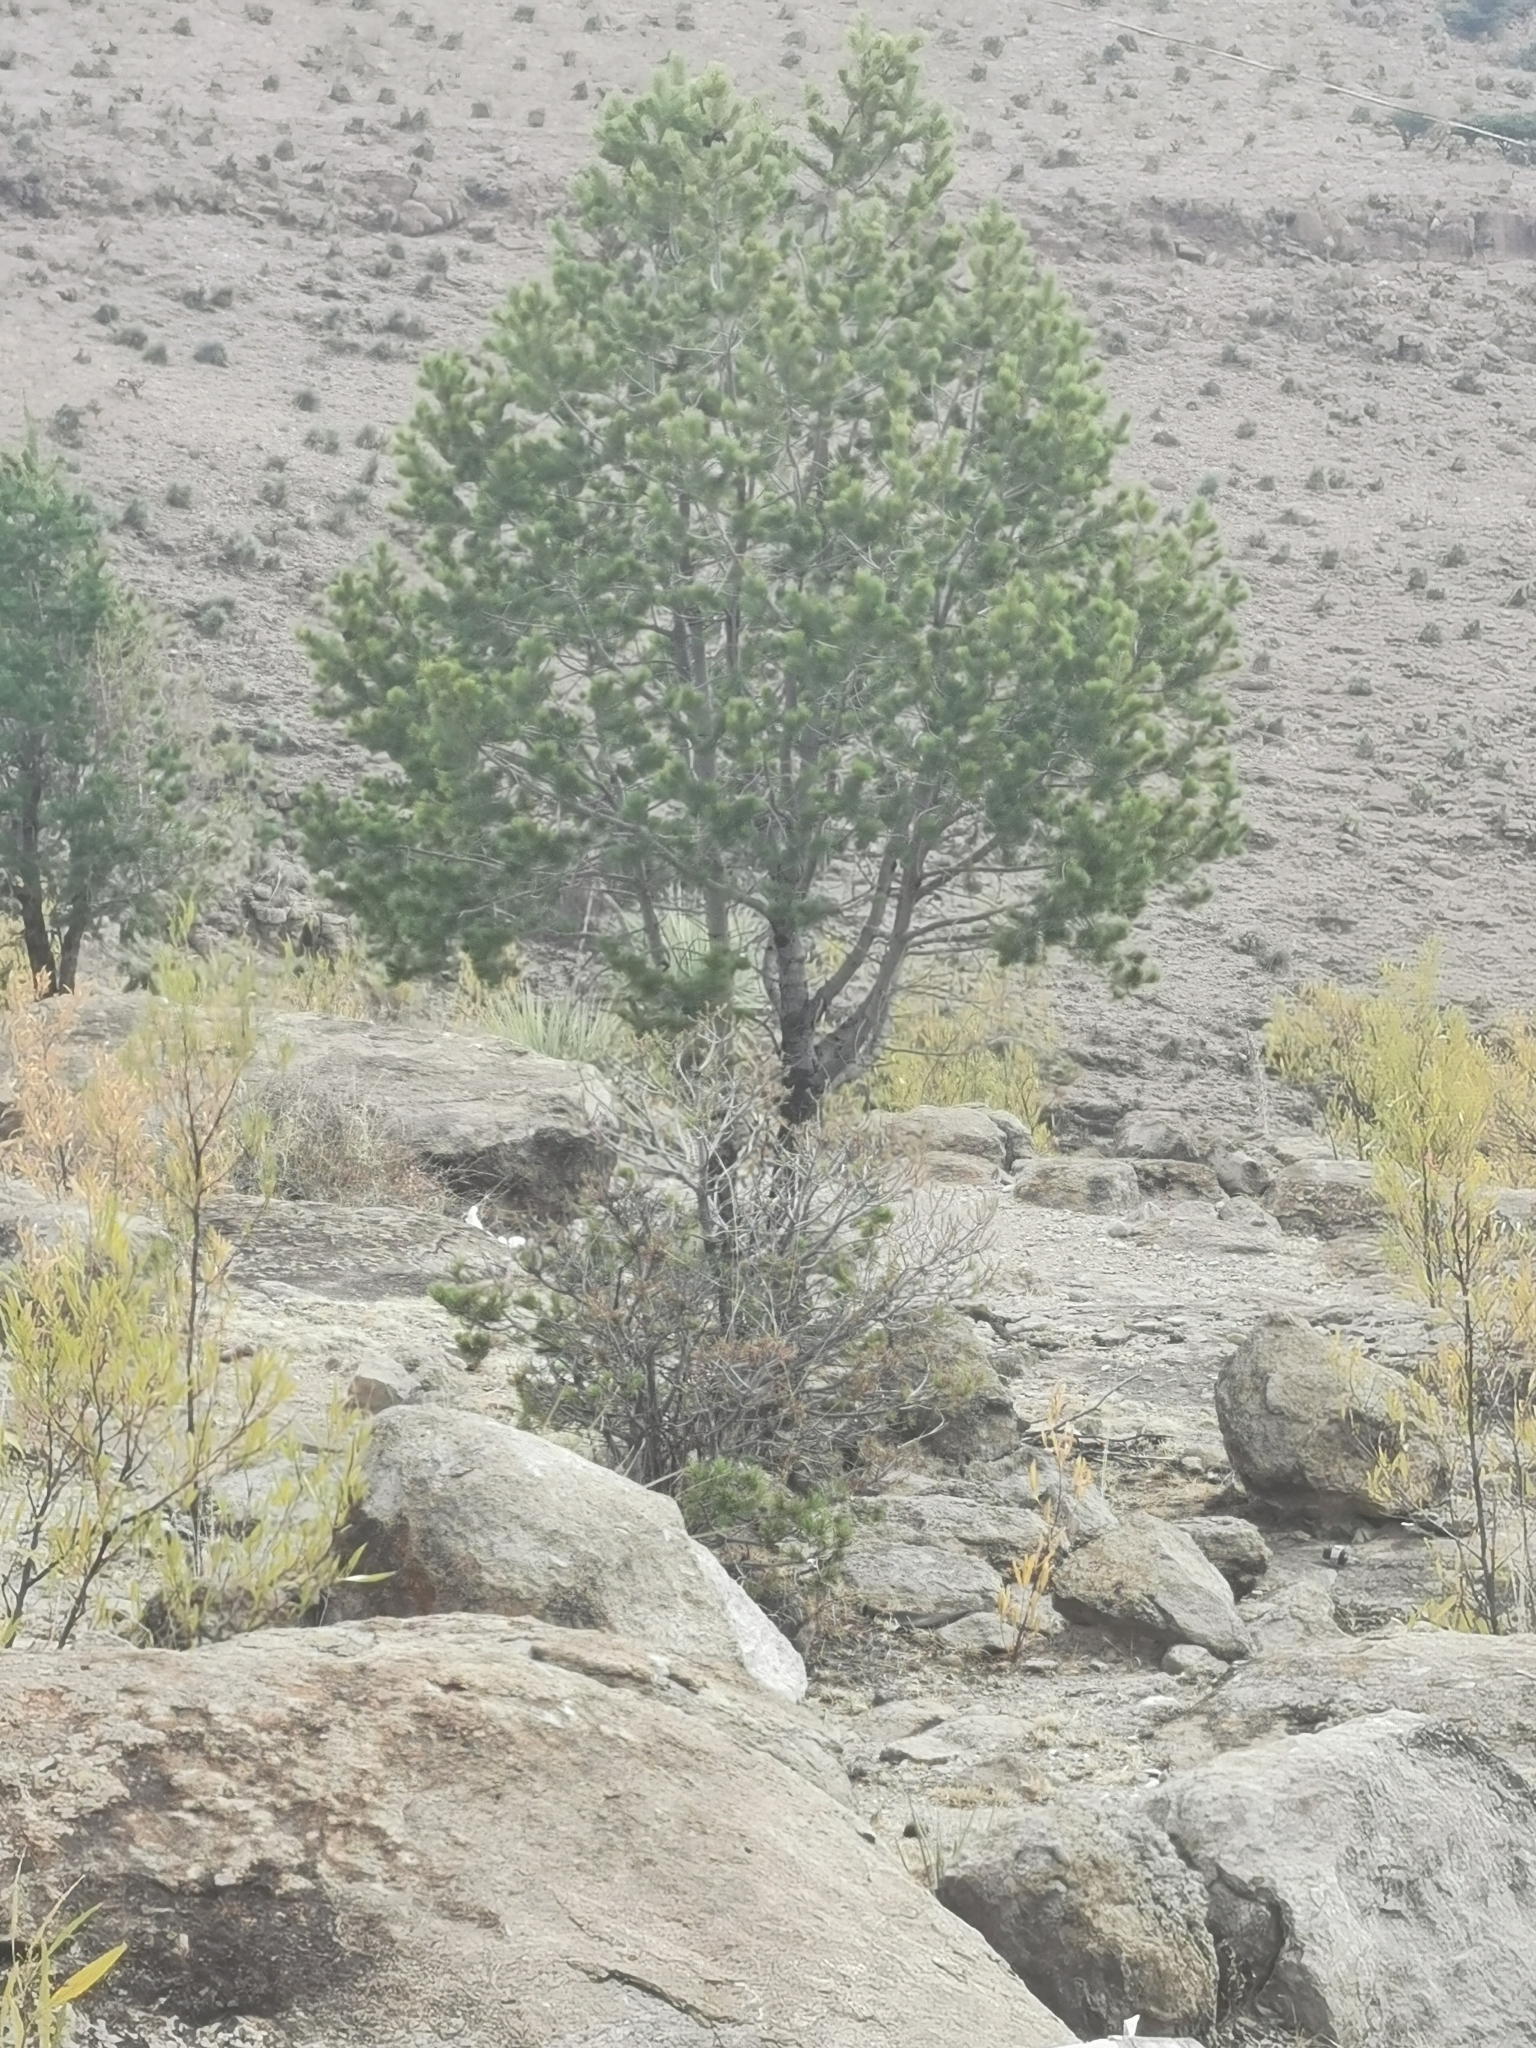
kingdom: Plantae
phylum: Tracheophyta
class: Pinopsida
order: Pinales
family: Pinaceae
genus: Pinus
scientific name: Pinus cembroides
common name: Mexican nut pine
